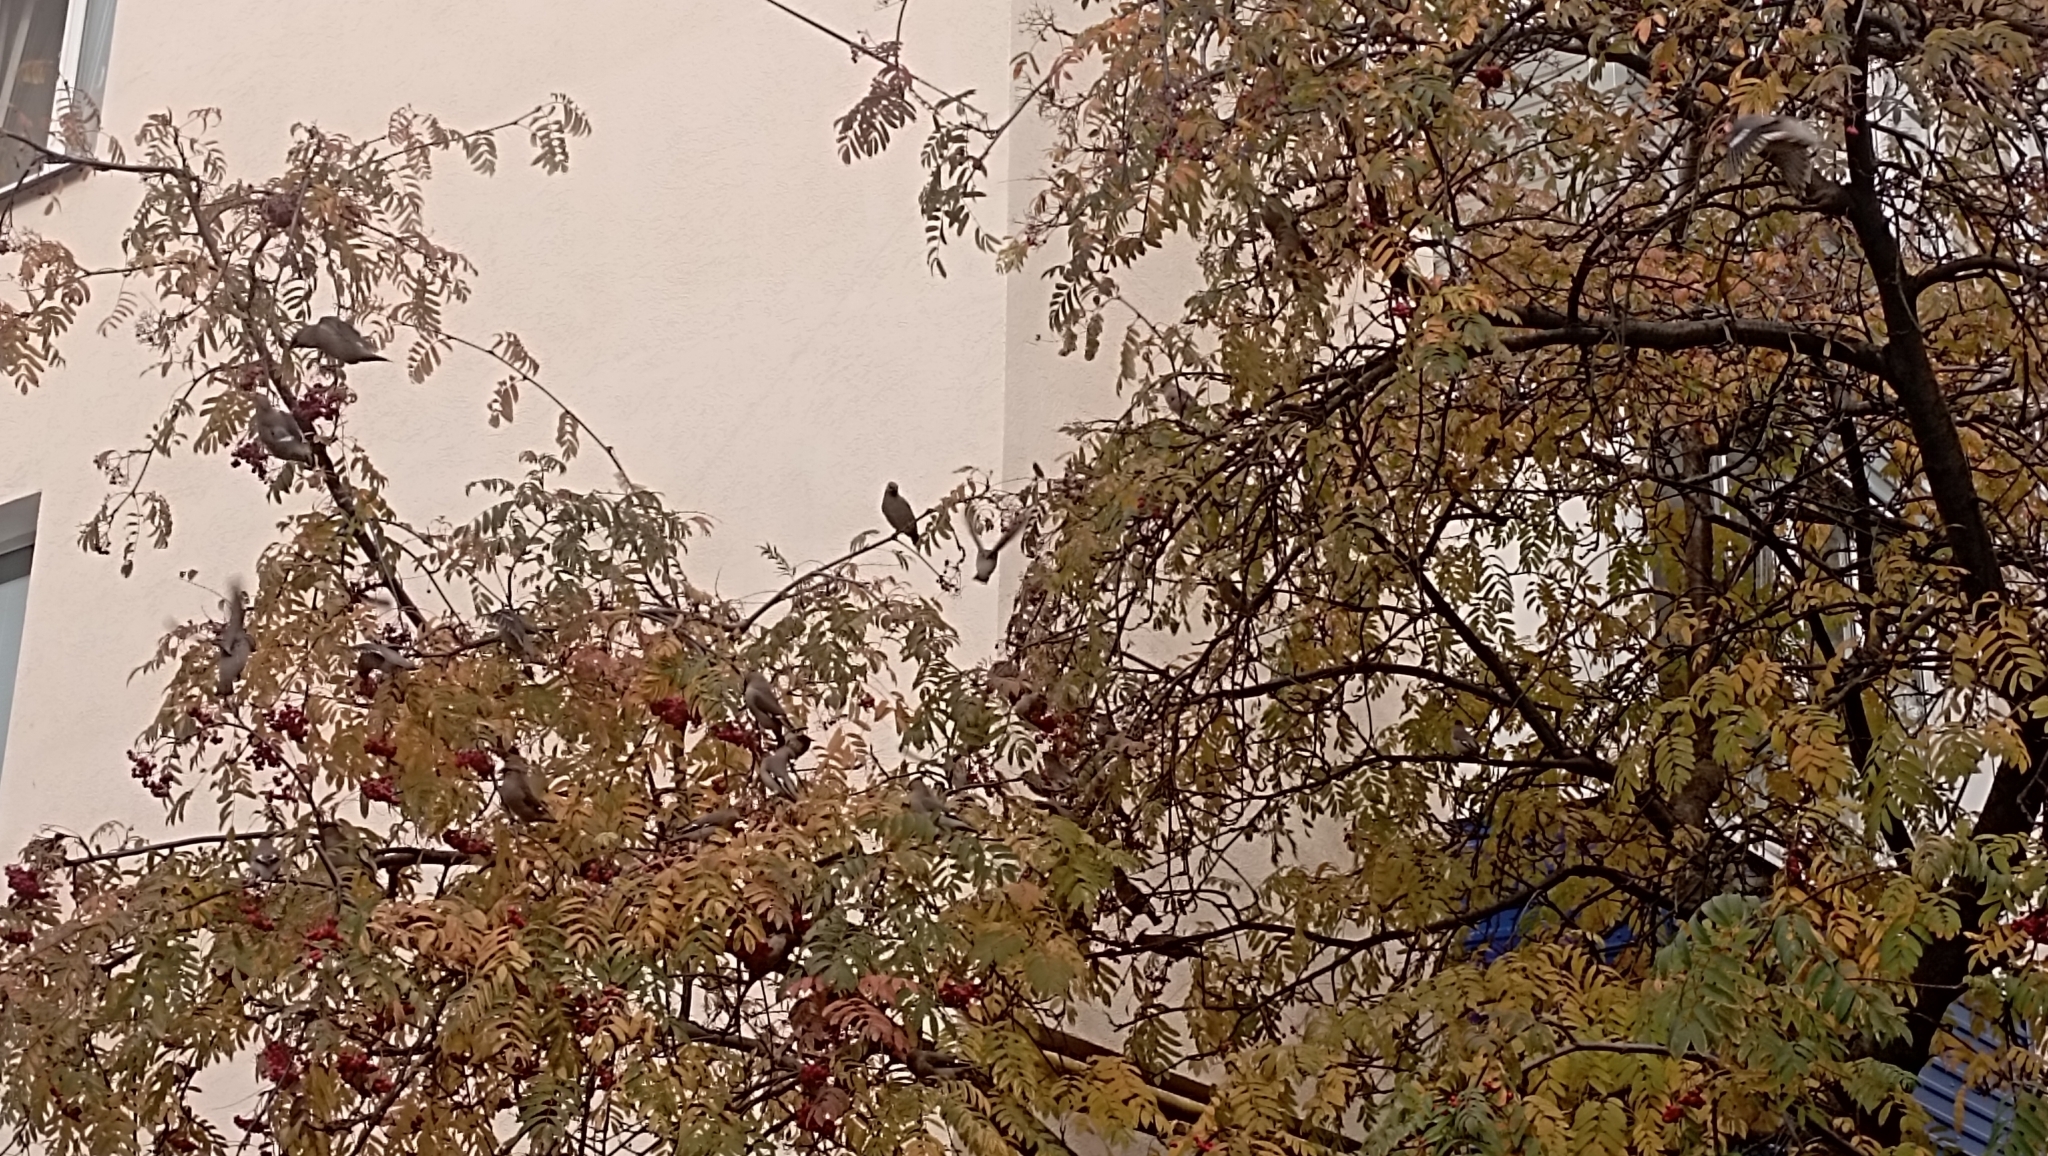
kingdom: Animalia
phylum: Chordata
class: Aves
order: Passeriformes
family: Bombycillidae
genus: Bombycilla
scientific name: Bombycilla garrulus
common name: Bohemian waxwing
